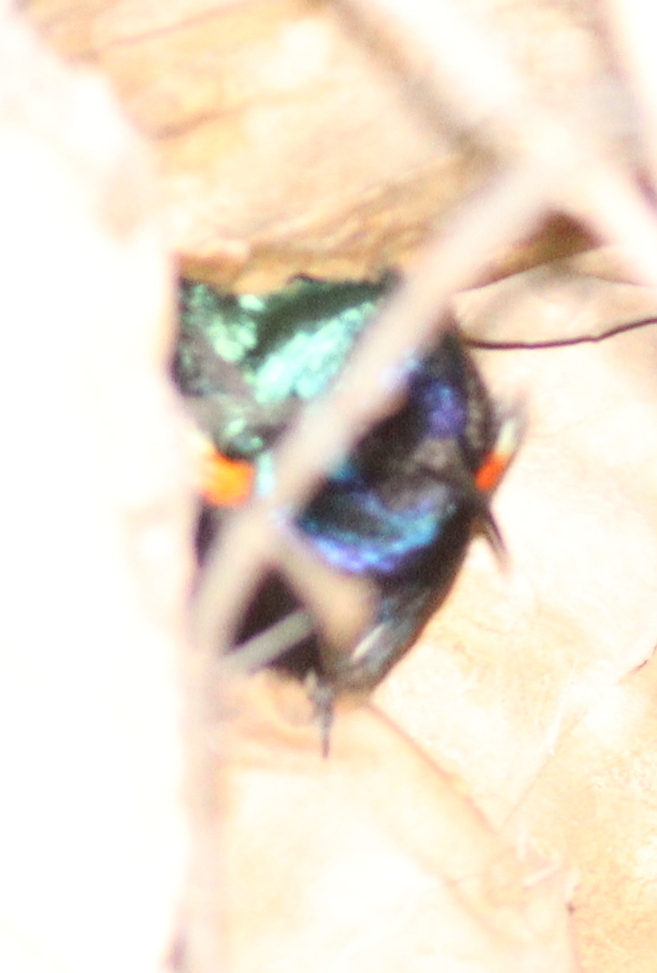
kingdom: Animalia
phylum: Chordata
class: Aves
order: Passeriformes
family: Nectariniidae
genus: Cinnyris
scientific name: Cinnyris osea
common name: Palestine sunbird
